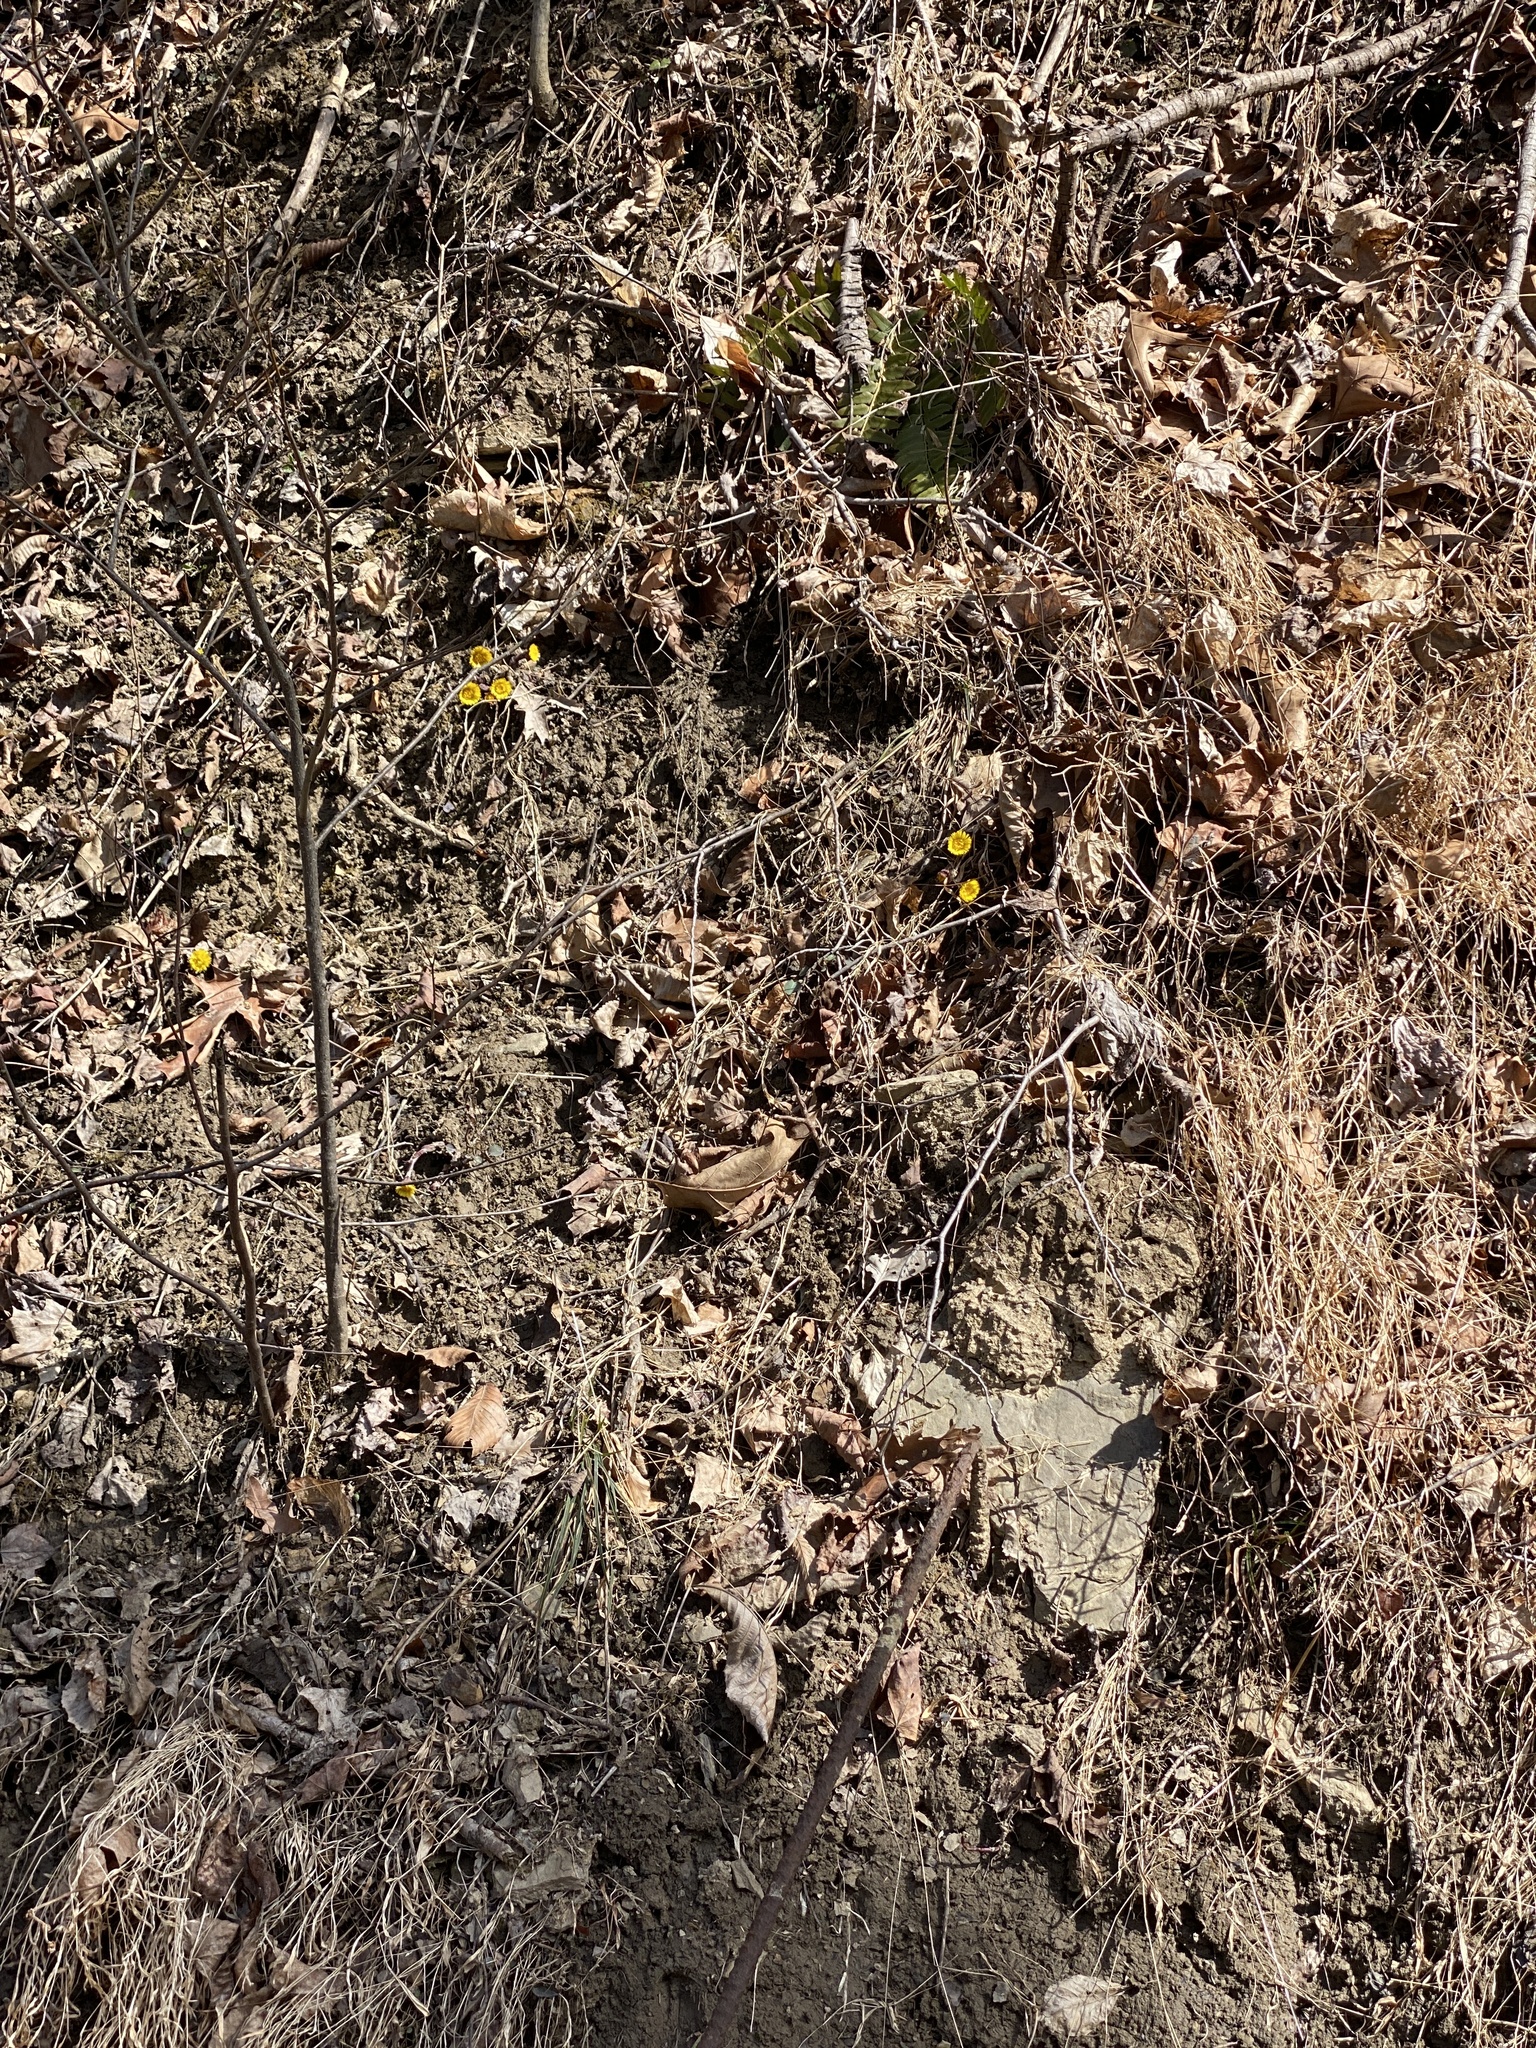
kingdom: Plantae
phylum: Tracheophyta
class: Magnoliopsida
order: Asterales
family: Asteraceae
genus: Tussilago
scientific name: Tussilago farfara
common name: Coltsfoot
